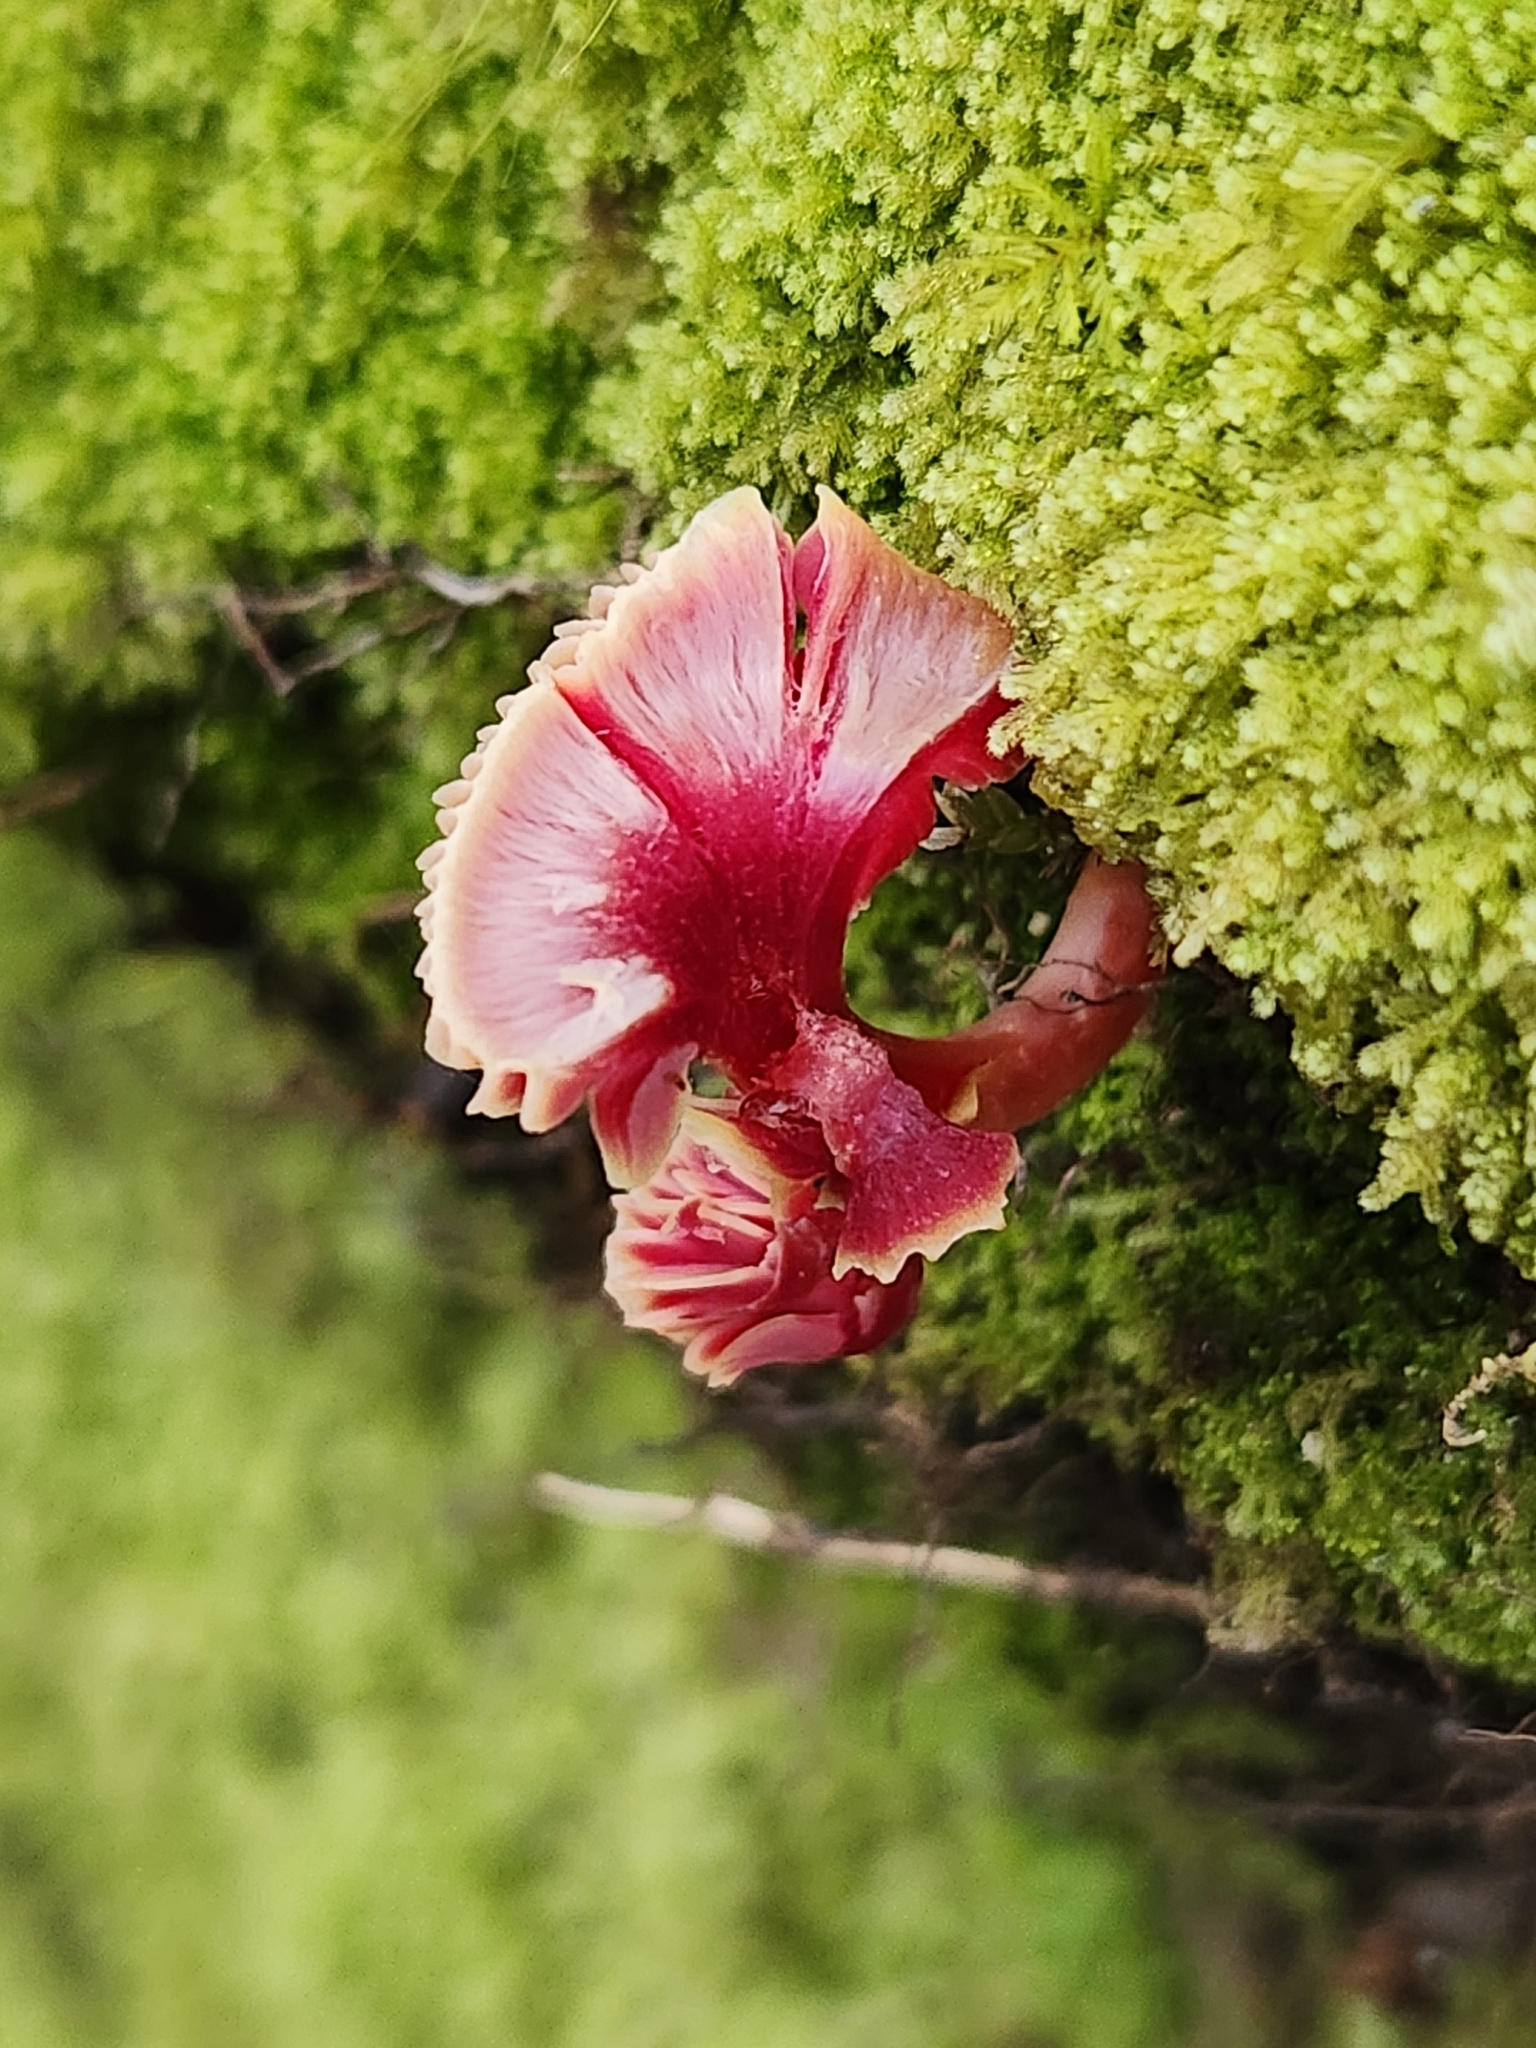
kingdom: Fungi
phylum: Basidiomycota
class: Agaricomycetes
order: Agaricales
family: Hygrophoraceae
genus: Hygrocybe
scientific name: Hygrocybe rubrocarnosa
